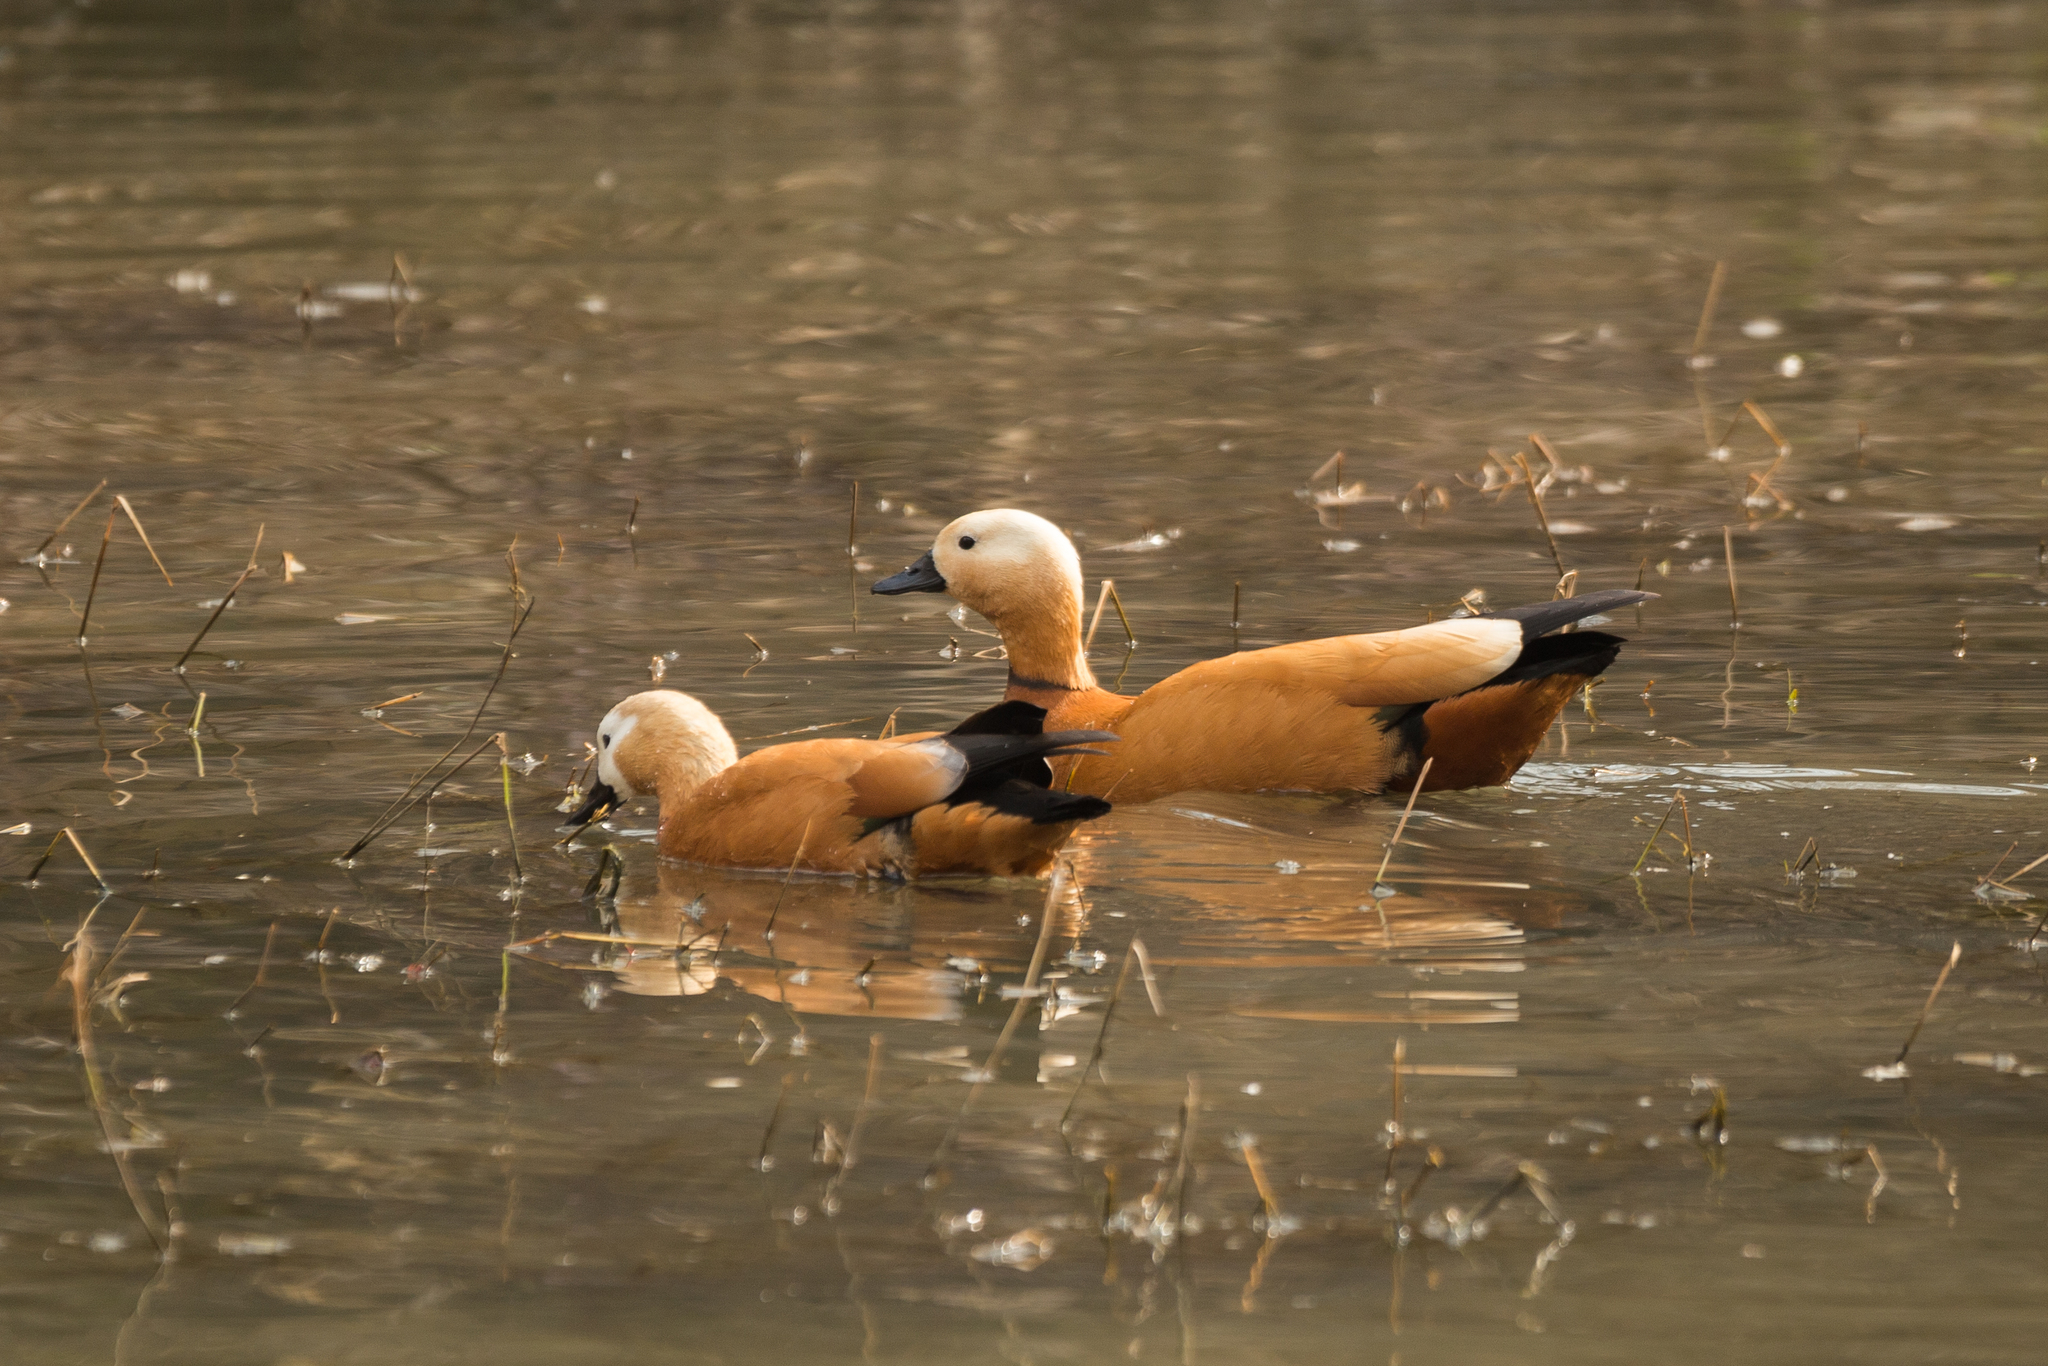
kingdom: Animalia
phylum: Chordata
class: Aves
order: Anseriformes
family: Anatidae
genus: Tadorna
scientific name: Tadorna ferruginea
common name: Ruddy shelduck
